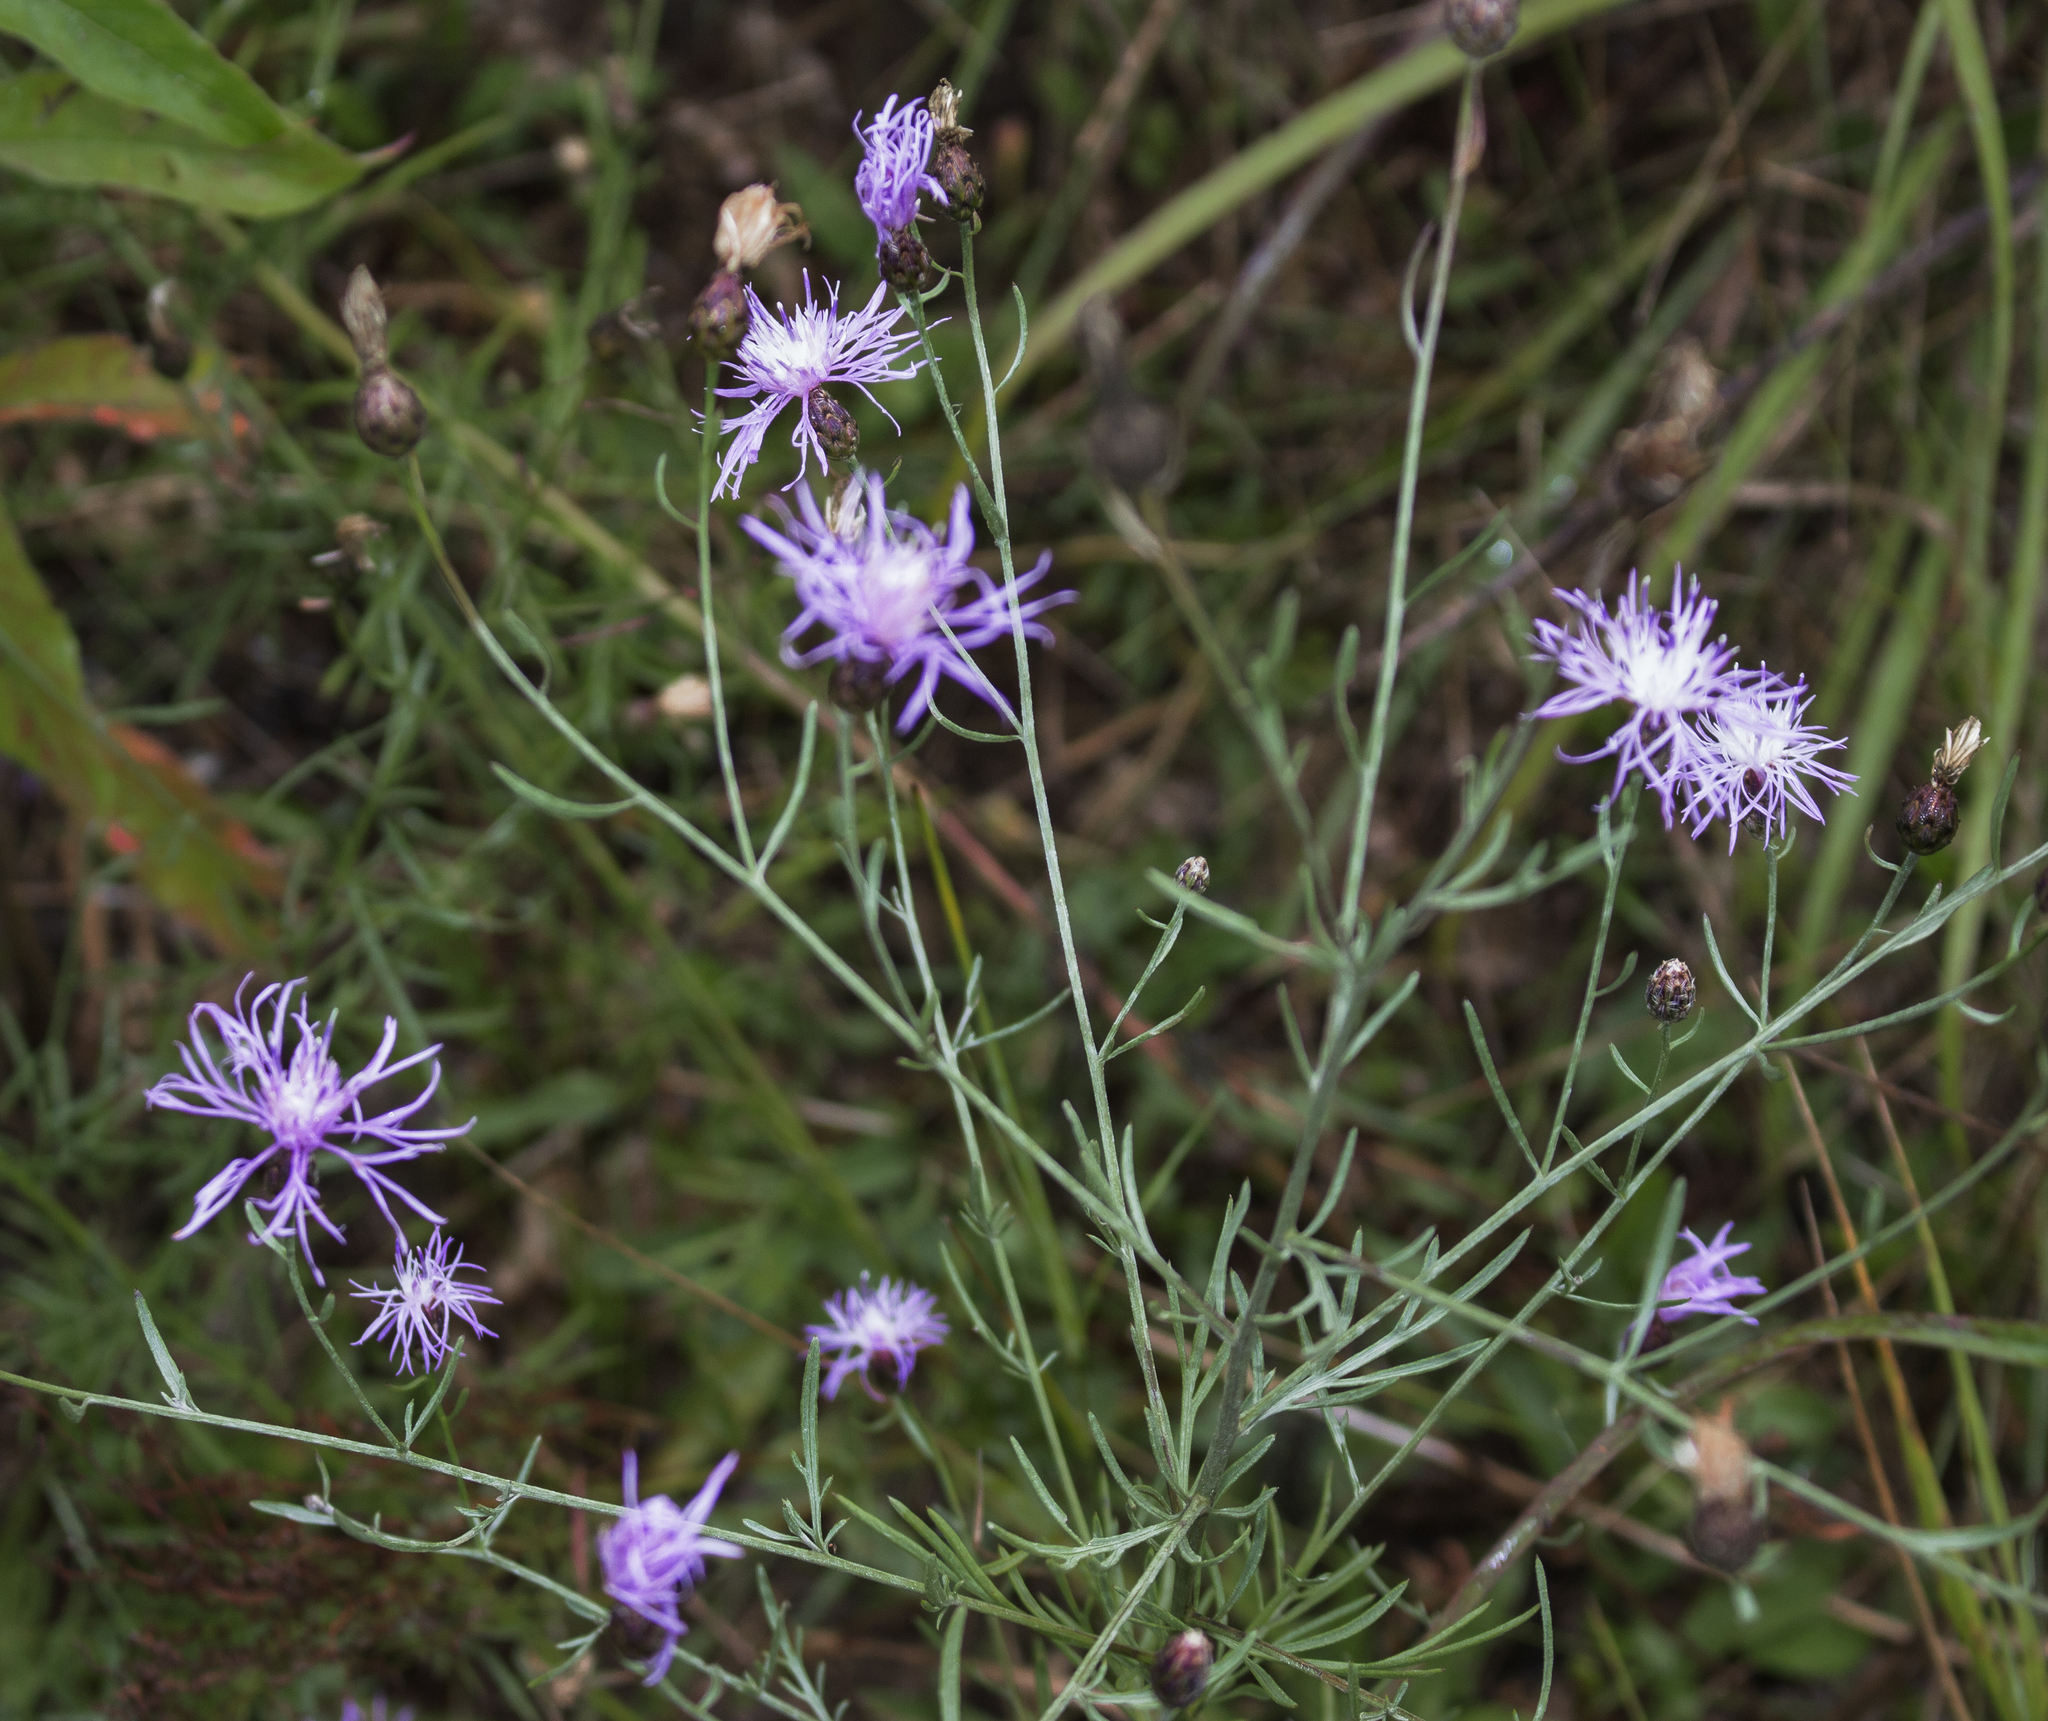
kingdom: Plantae
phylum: Tracheophyta
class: Magnoliopsida
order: Asterales
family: Asteraceae
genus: Centaurea
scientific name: Centaurea stoebe
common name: Spotted knapweed
